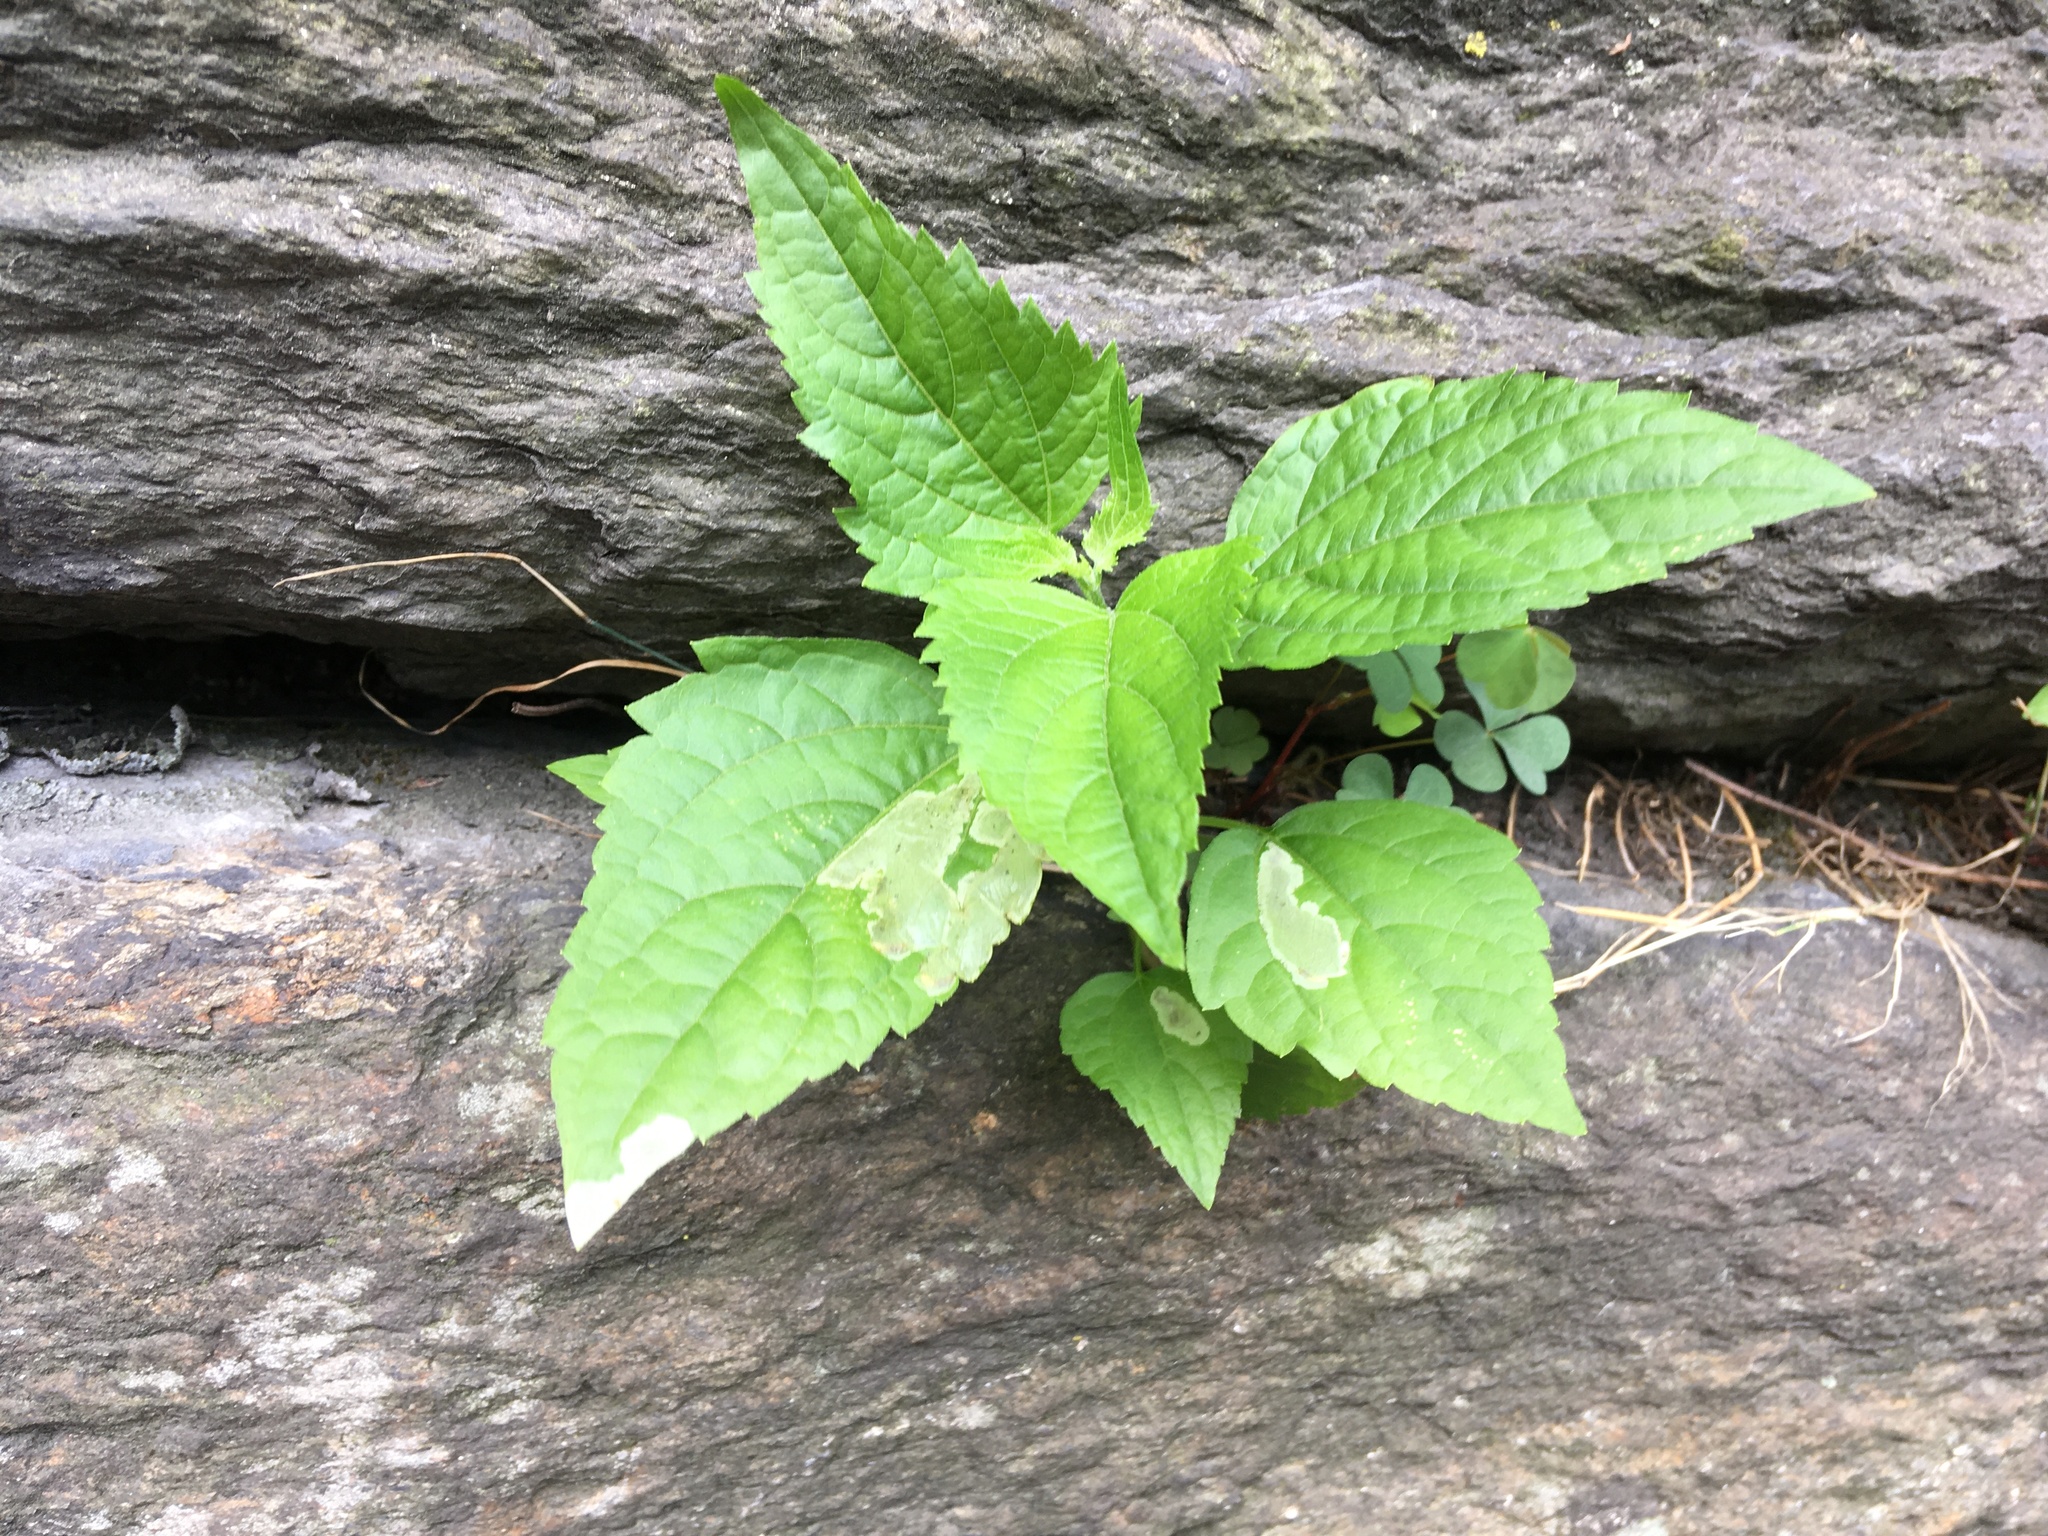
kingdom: Plantae
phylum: Tracheophyta
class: Magnoliopsida
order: Asterales
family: Asteraceae
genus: Ageratina
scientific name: Ageratina altissima
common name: White snakeroot
